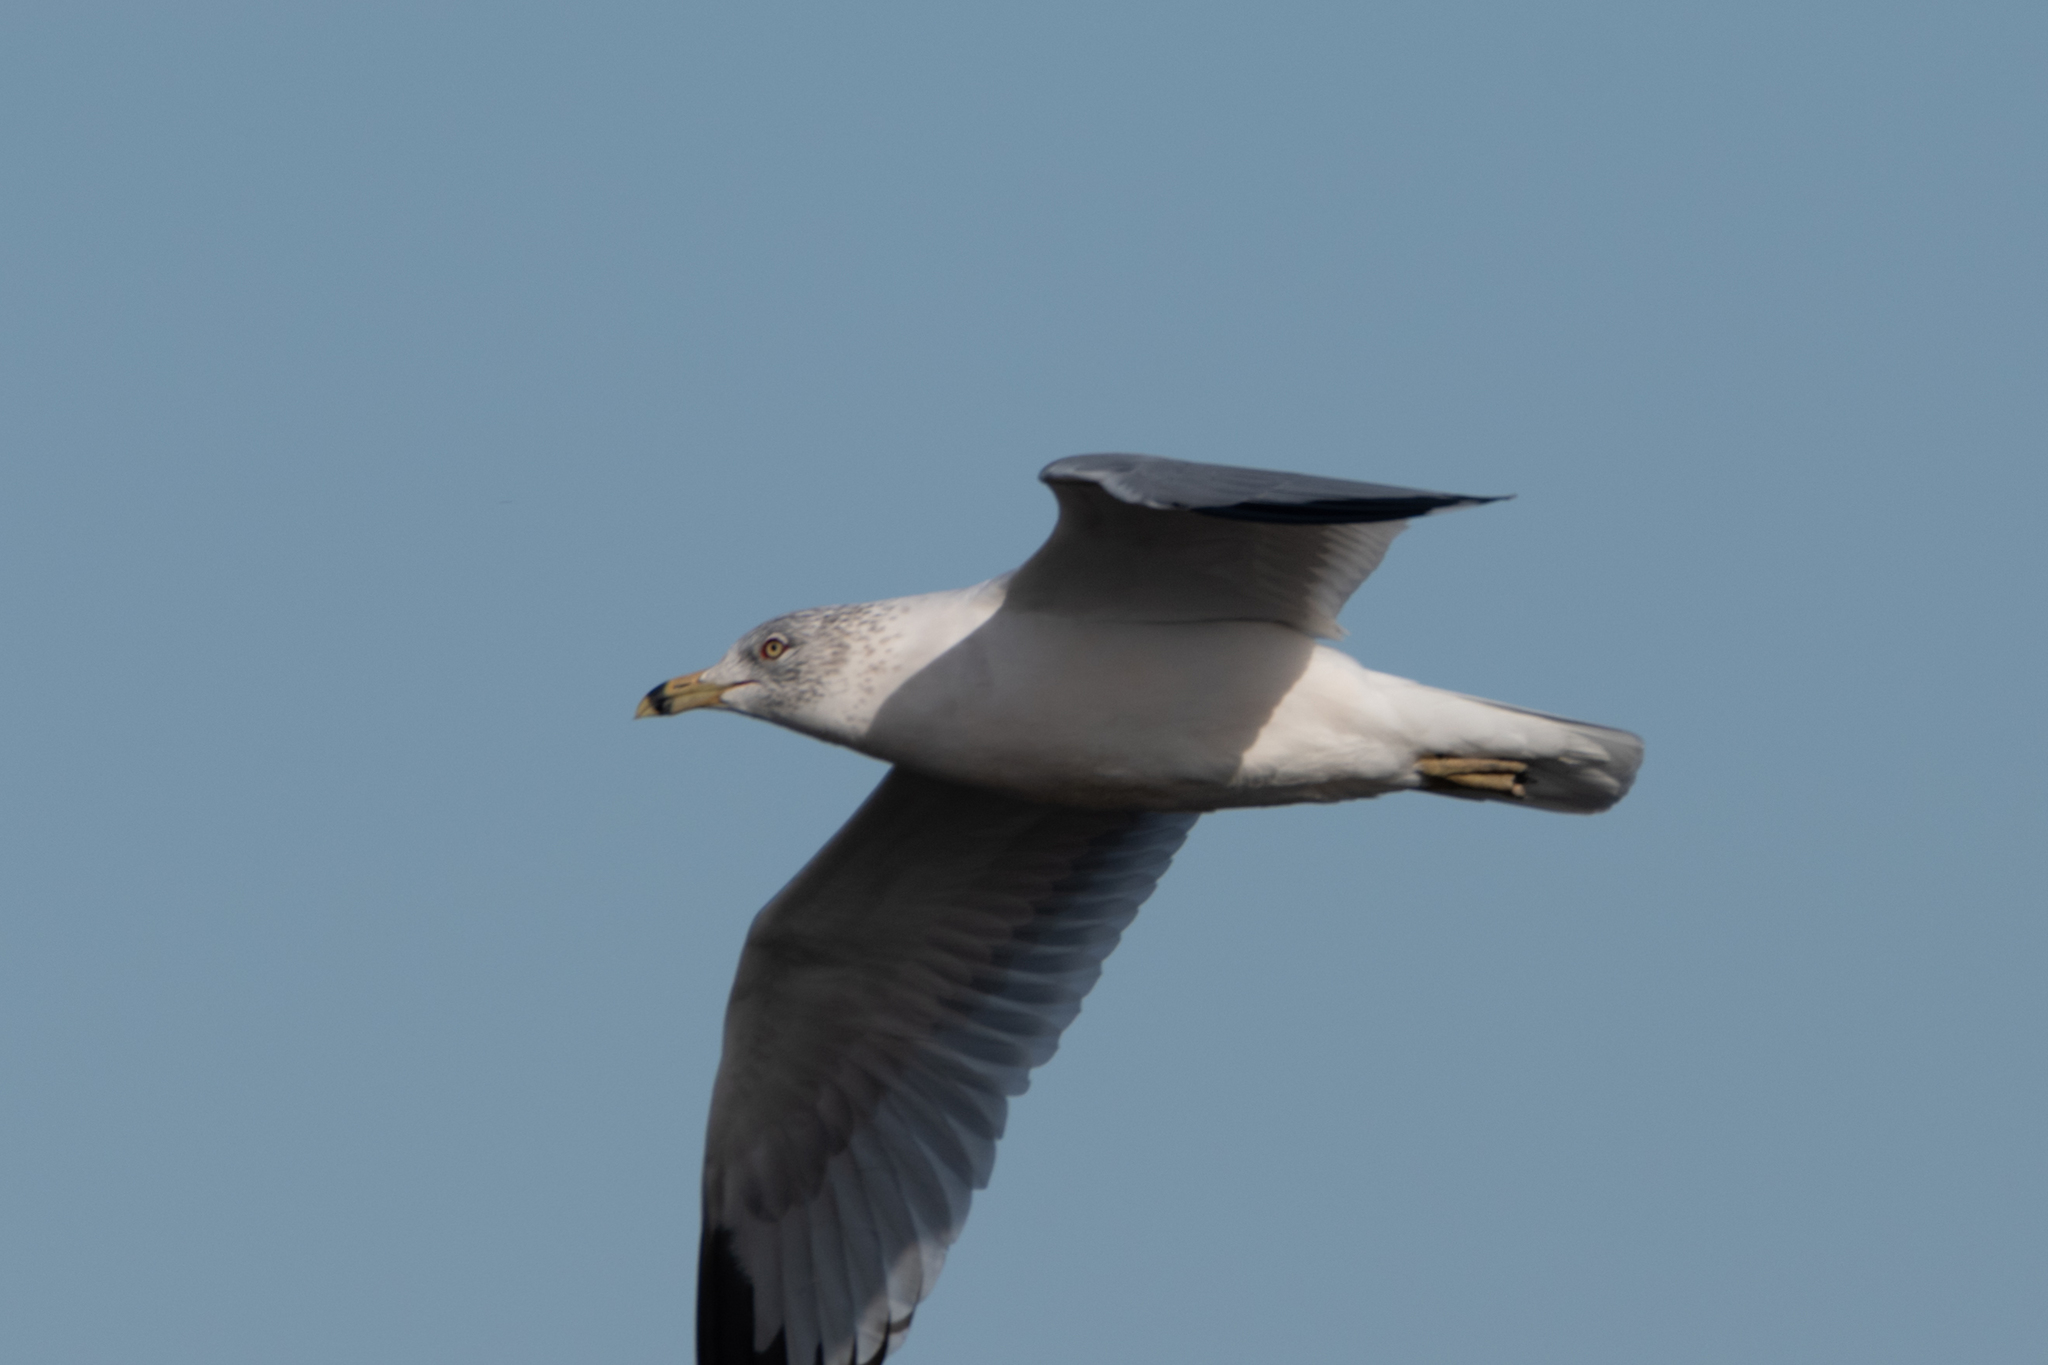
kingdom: Animalia
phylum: Chordata
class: Aves
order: Charadriiformes
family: Laridae
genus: Larus
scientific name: Larus delawarensis
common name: Ring-billed gull
